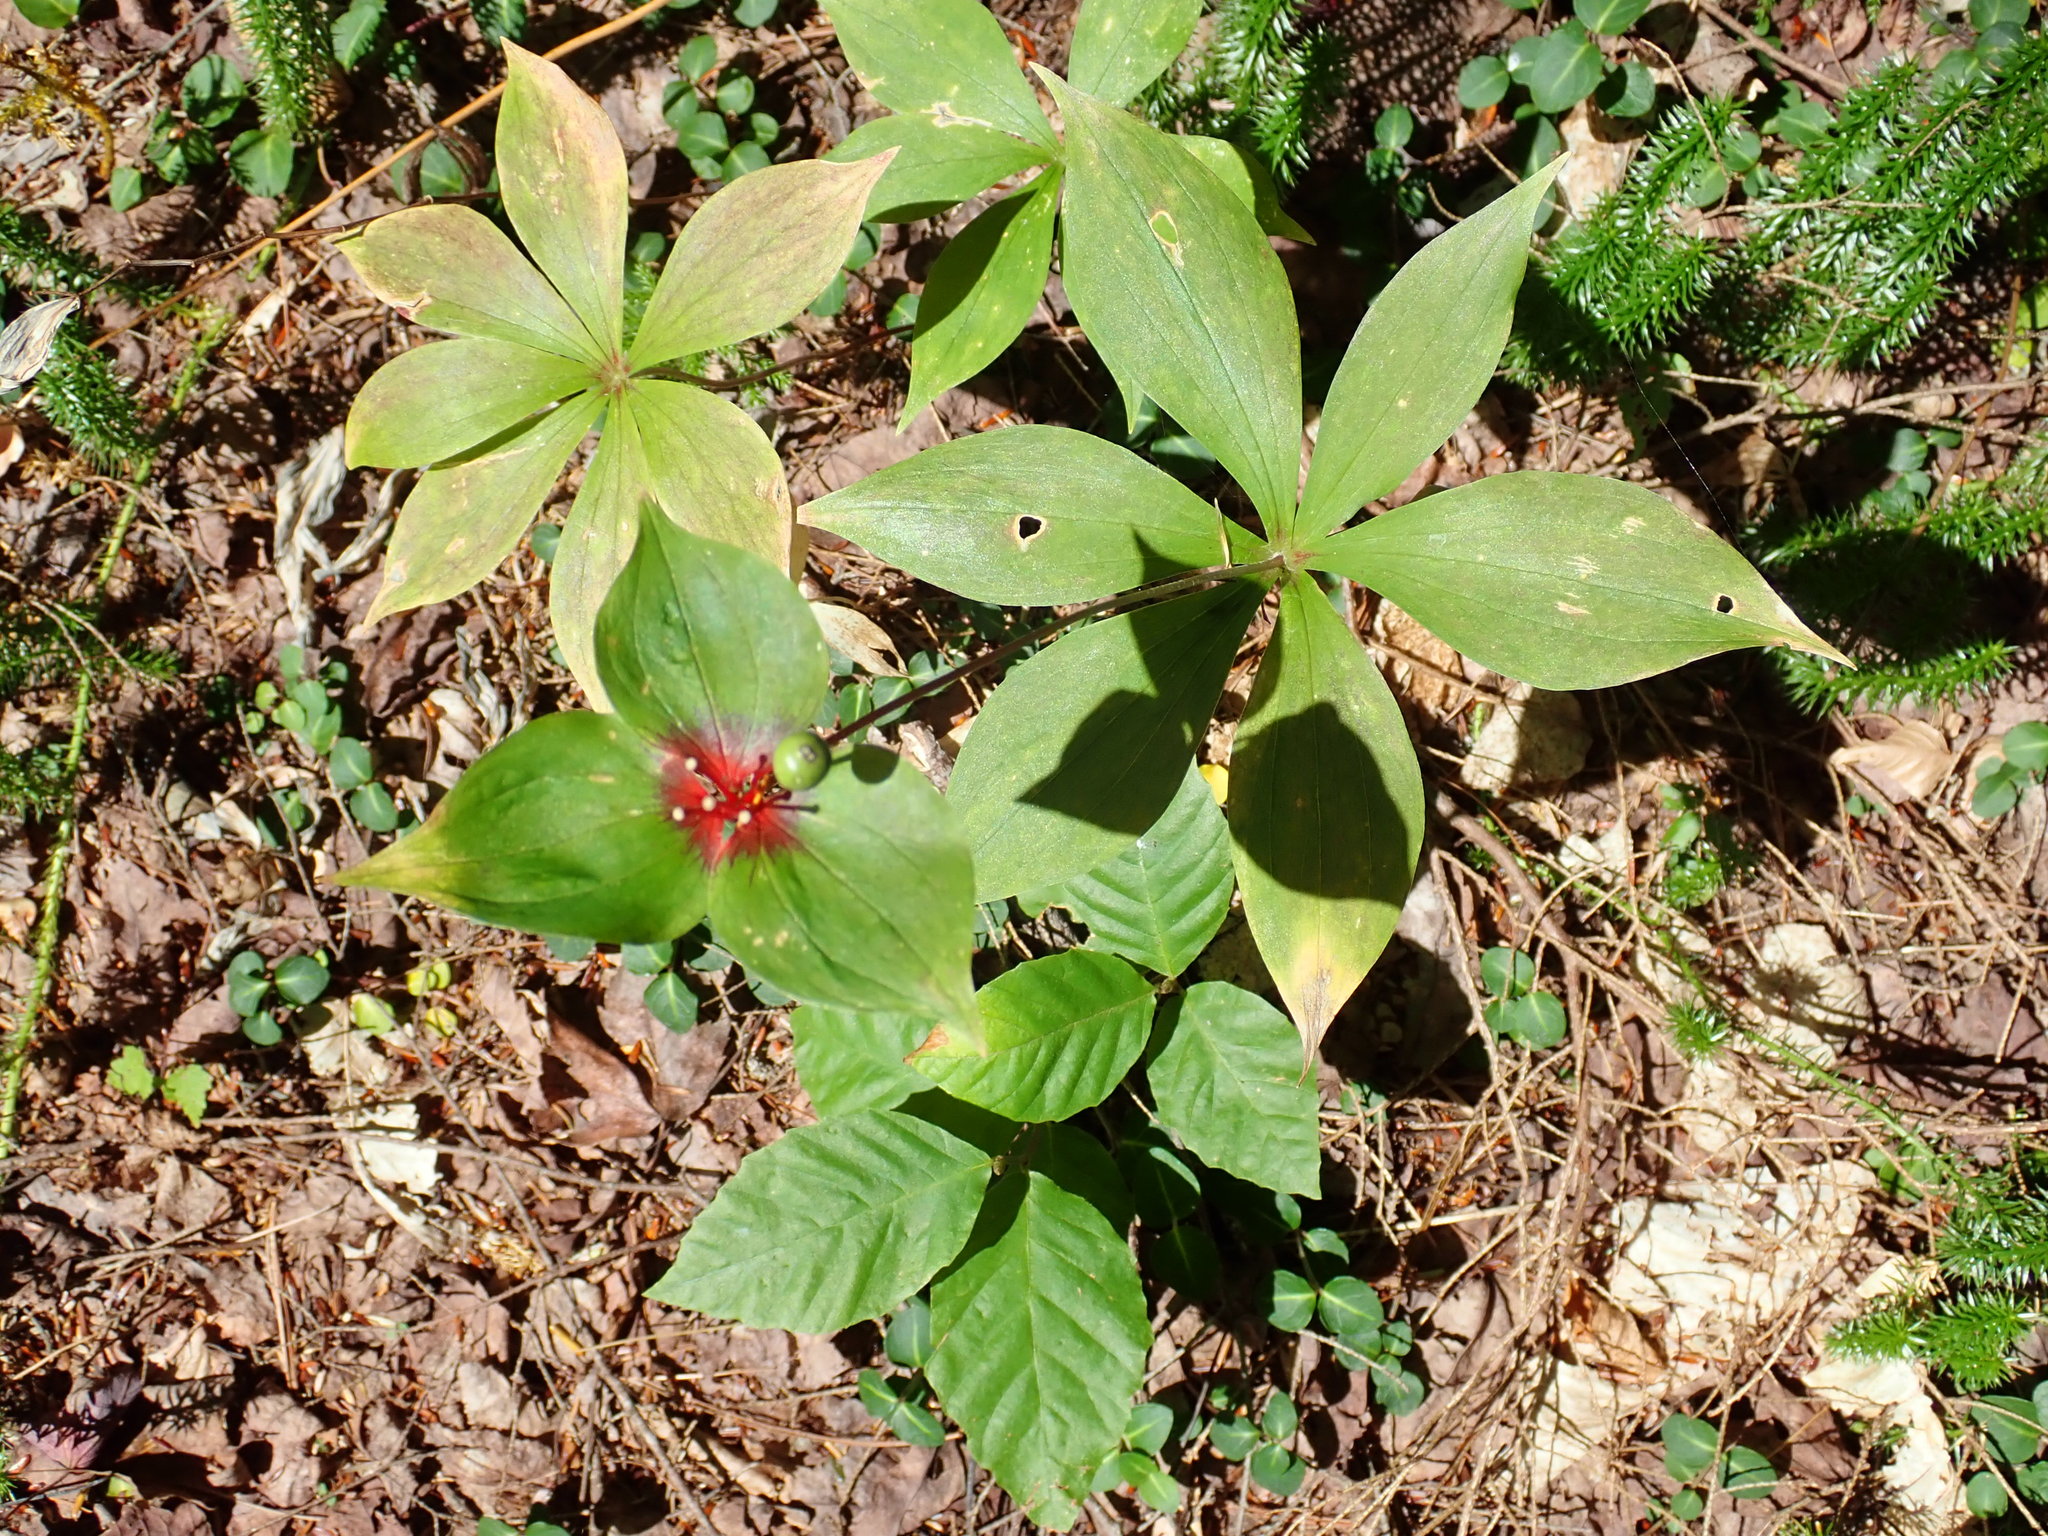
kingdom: Plantae
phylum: Tracheophyta
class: Liliopsida
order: Liliales
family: Liliaceae
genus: Medeola
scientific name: Medeola virginiana
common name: Indian cucumber-root
